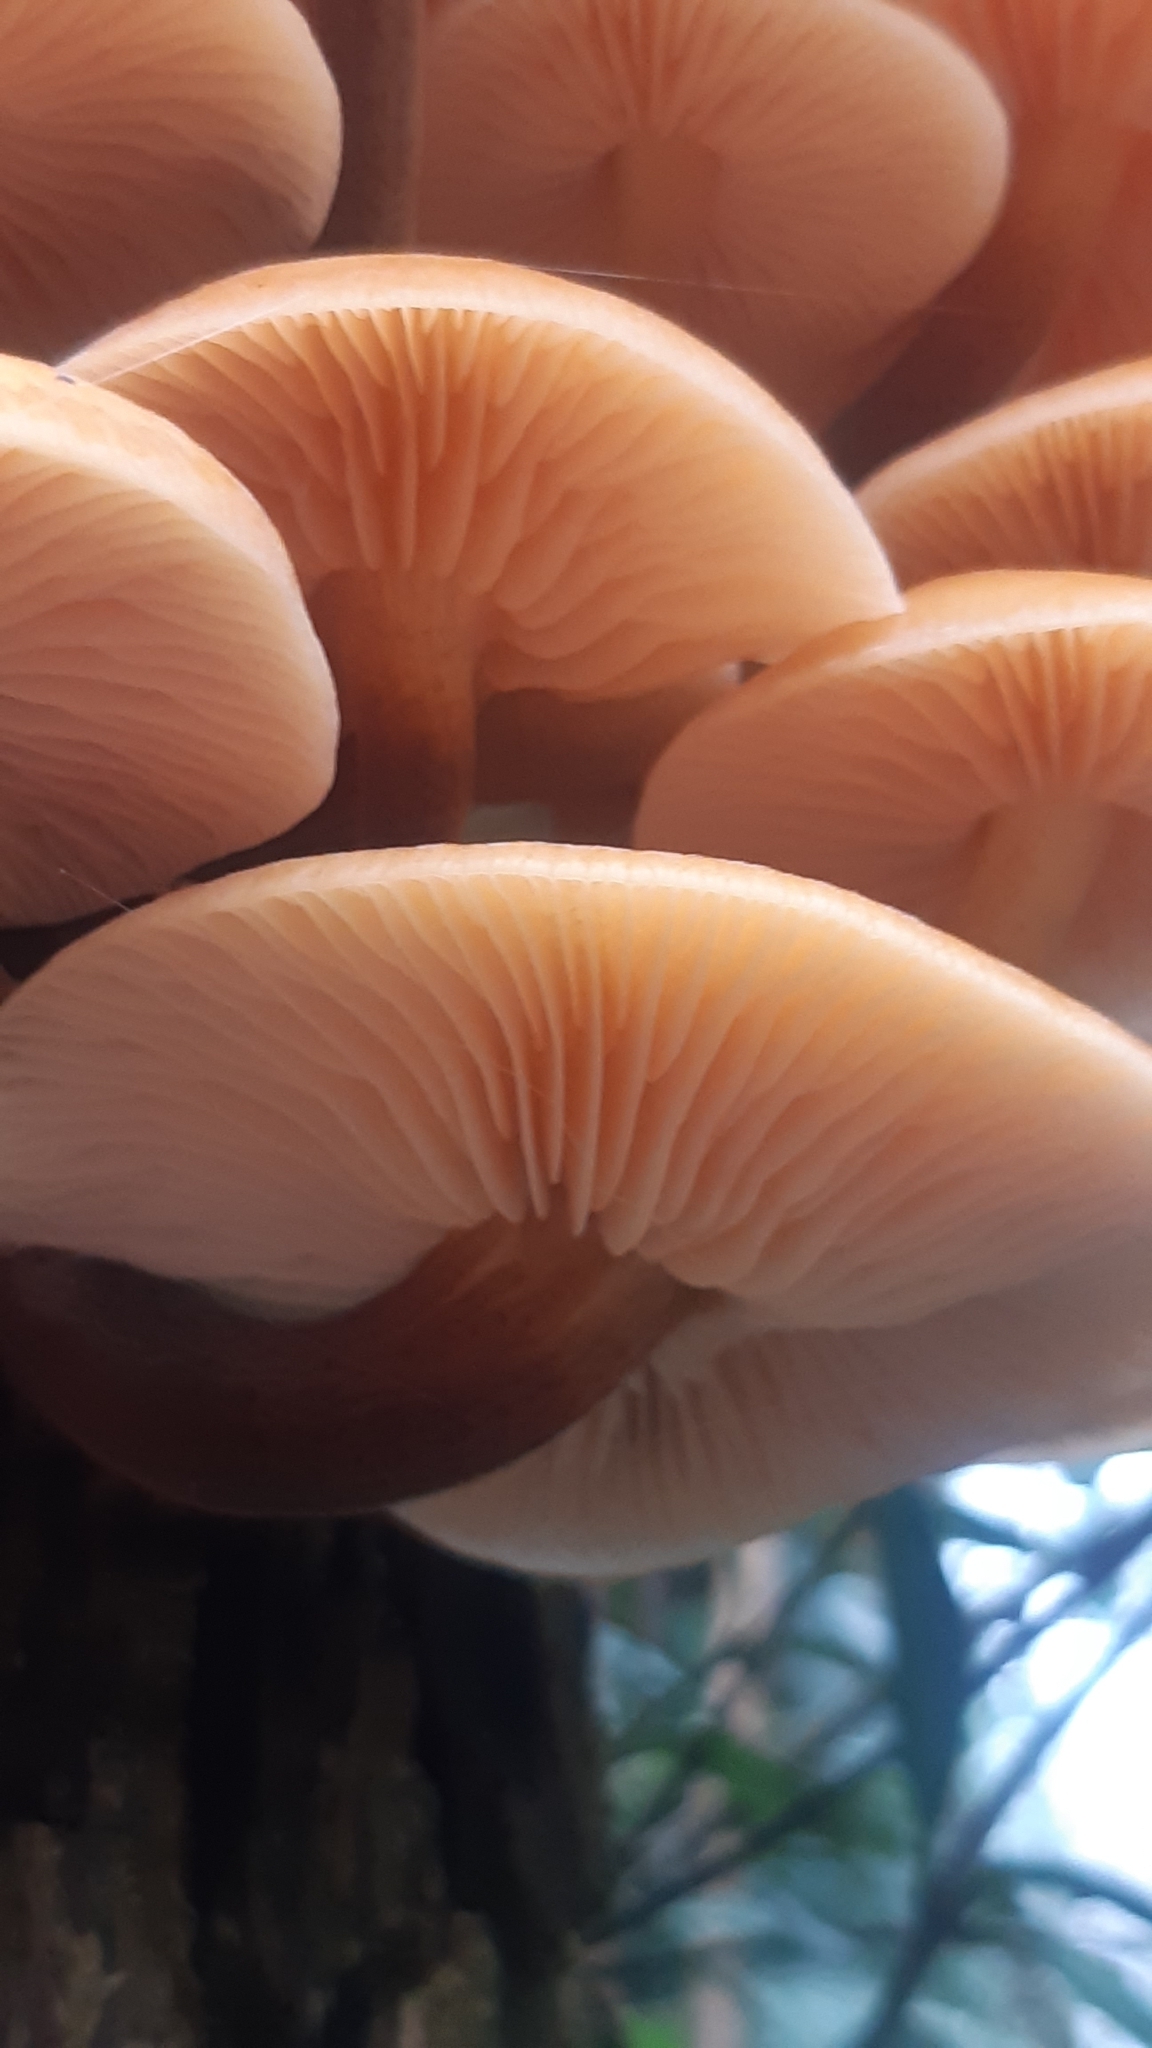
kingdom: Fungi
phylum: Basidiomycota
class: Agaricomycetes
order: Agaricales
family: Physalacriaceae
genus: Flammulina
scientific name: Flammulina
